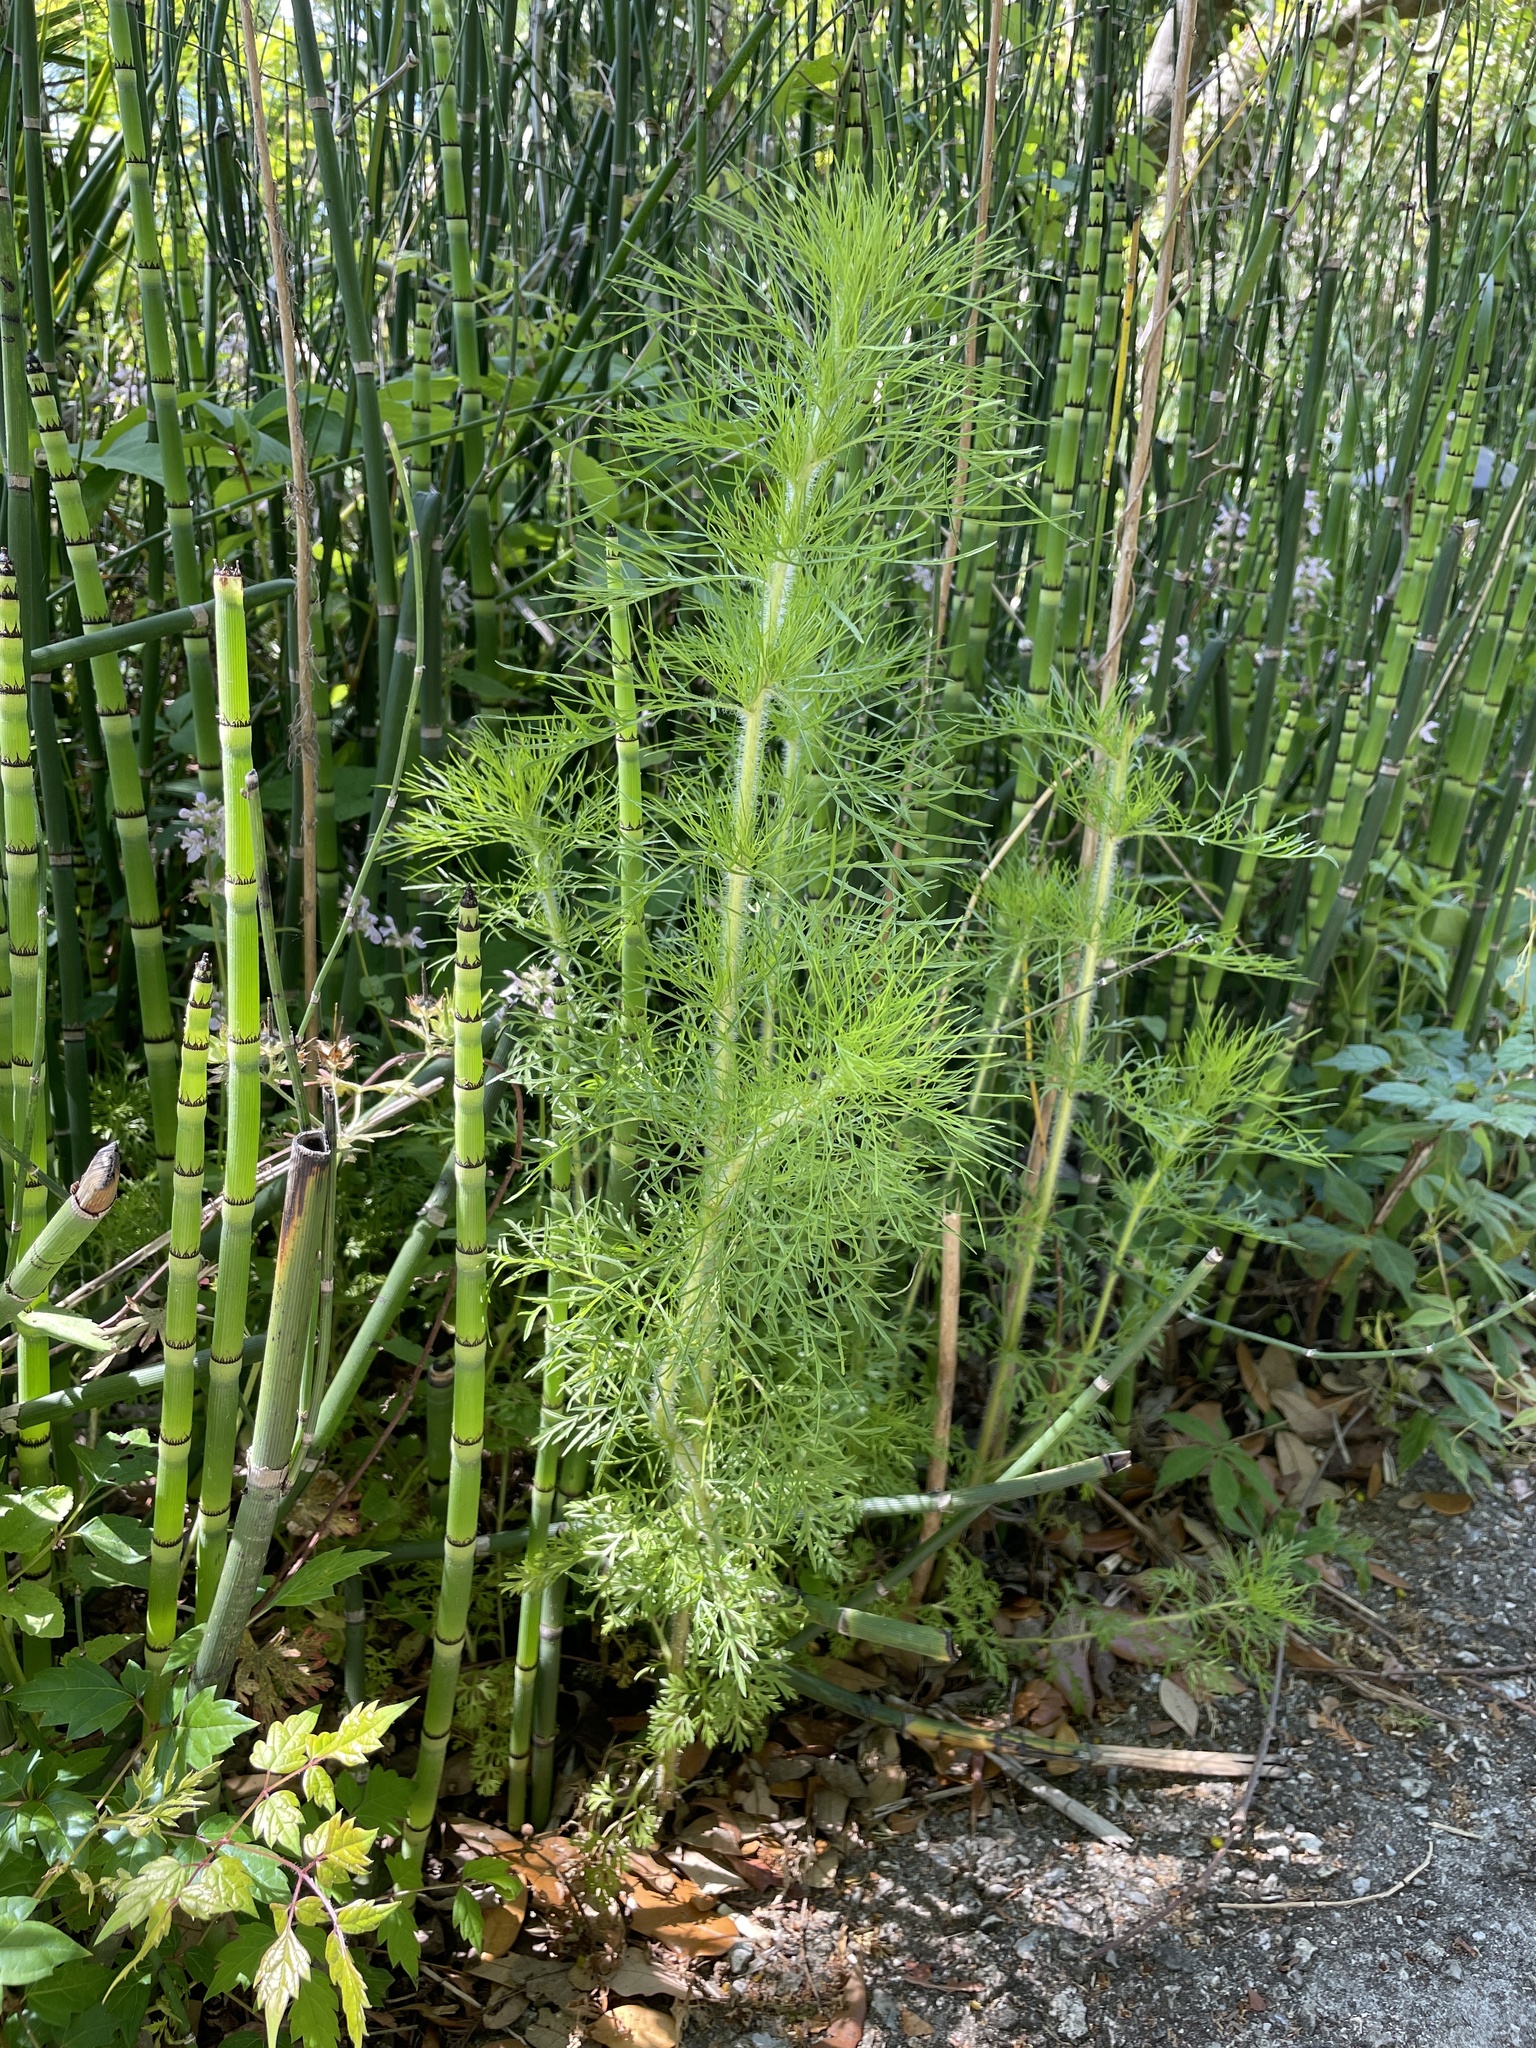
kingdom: Plantae
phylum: Tracheophyta
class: Magnoliopsida
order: Asterales
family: Asteraceae
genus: Eupatorium
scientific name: Eupatorium capillifolium
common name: Dog-fennel
